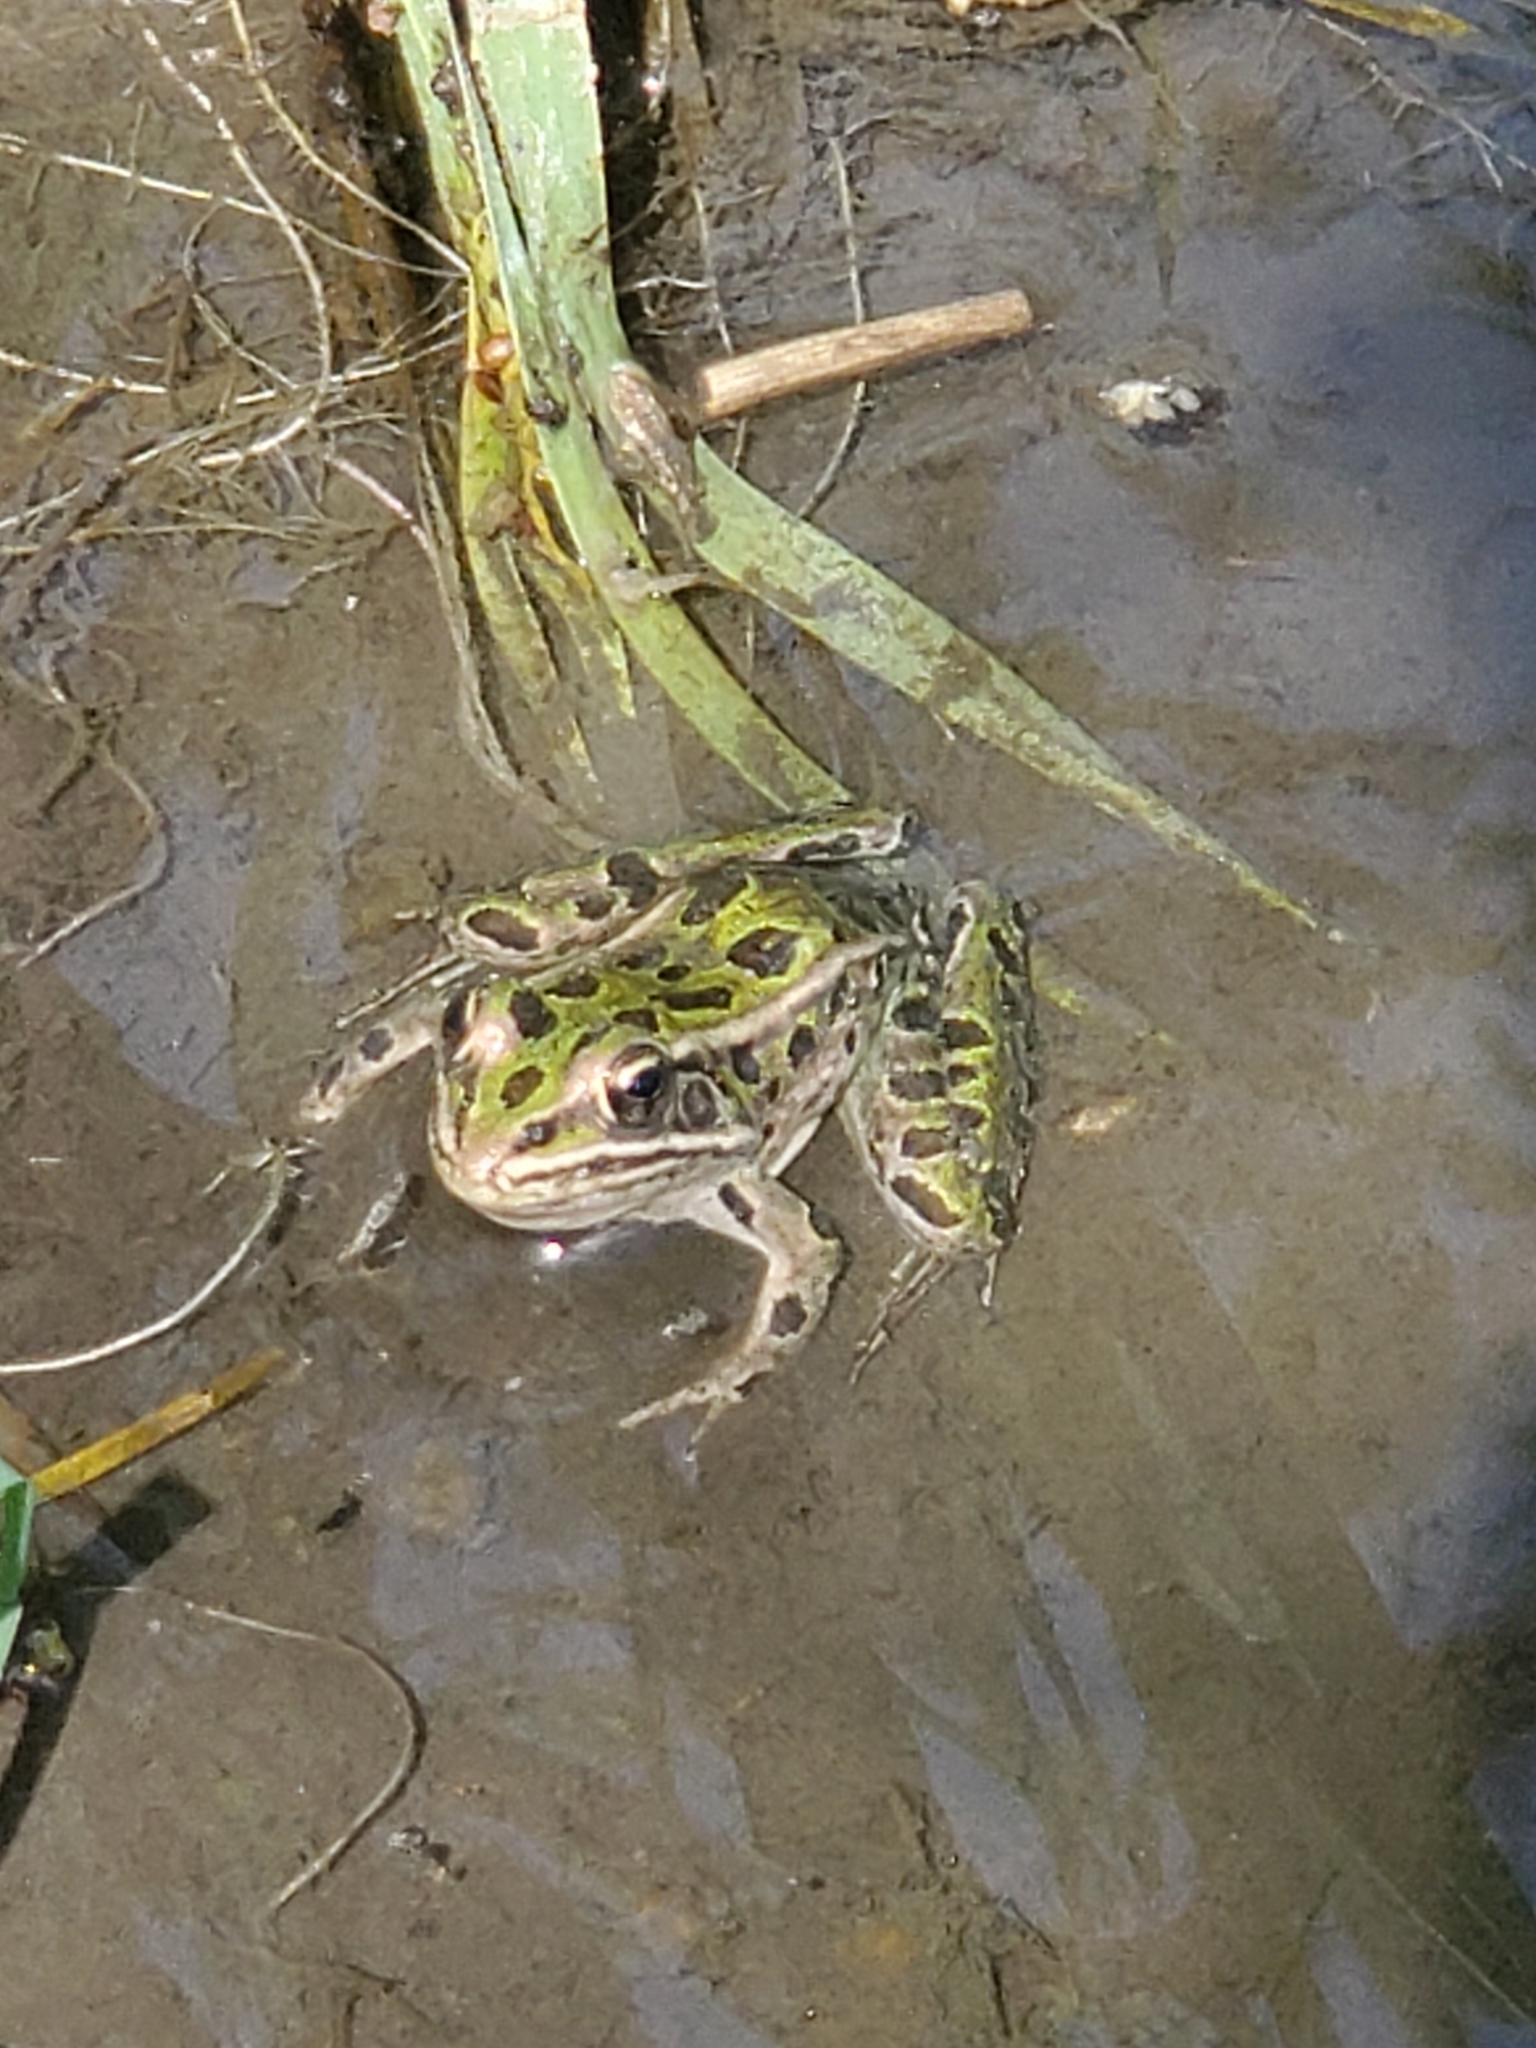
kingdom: Animalia
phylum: Chordata
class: Amphibia
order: Anura
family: Ranidae
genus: Lithobates
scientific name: Lithobates pipiens
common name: Northern leopard frog
